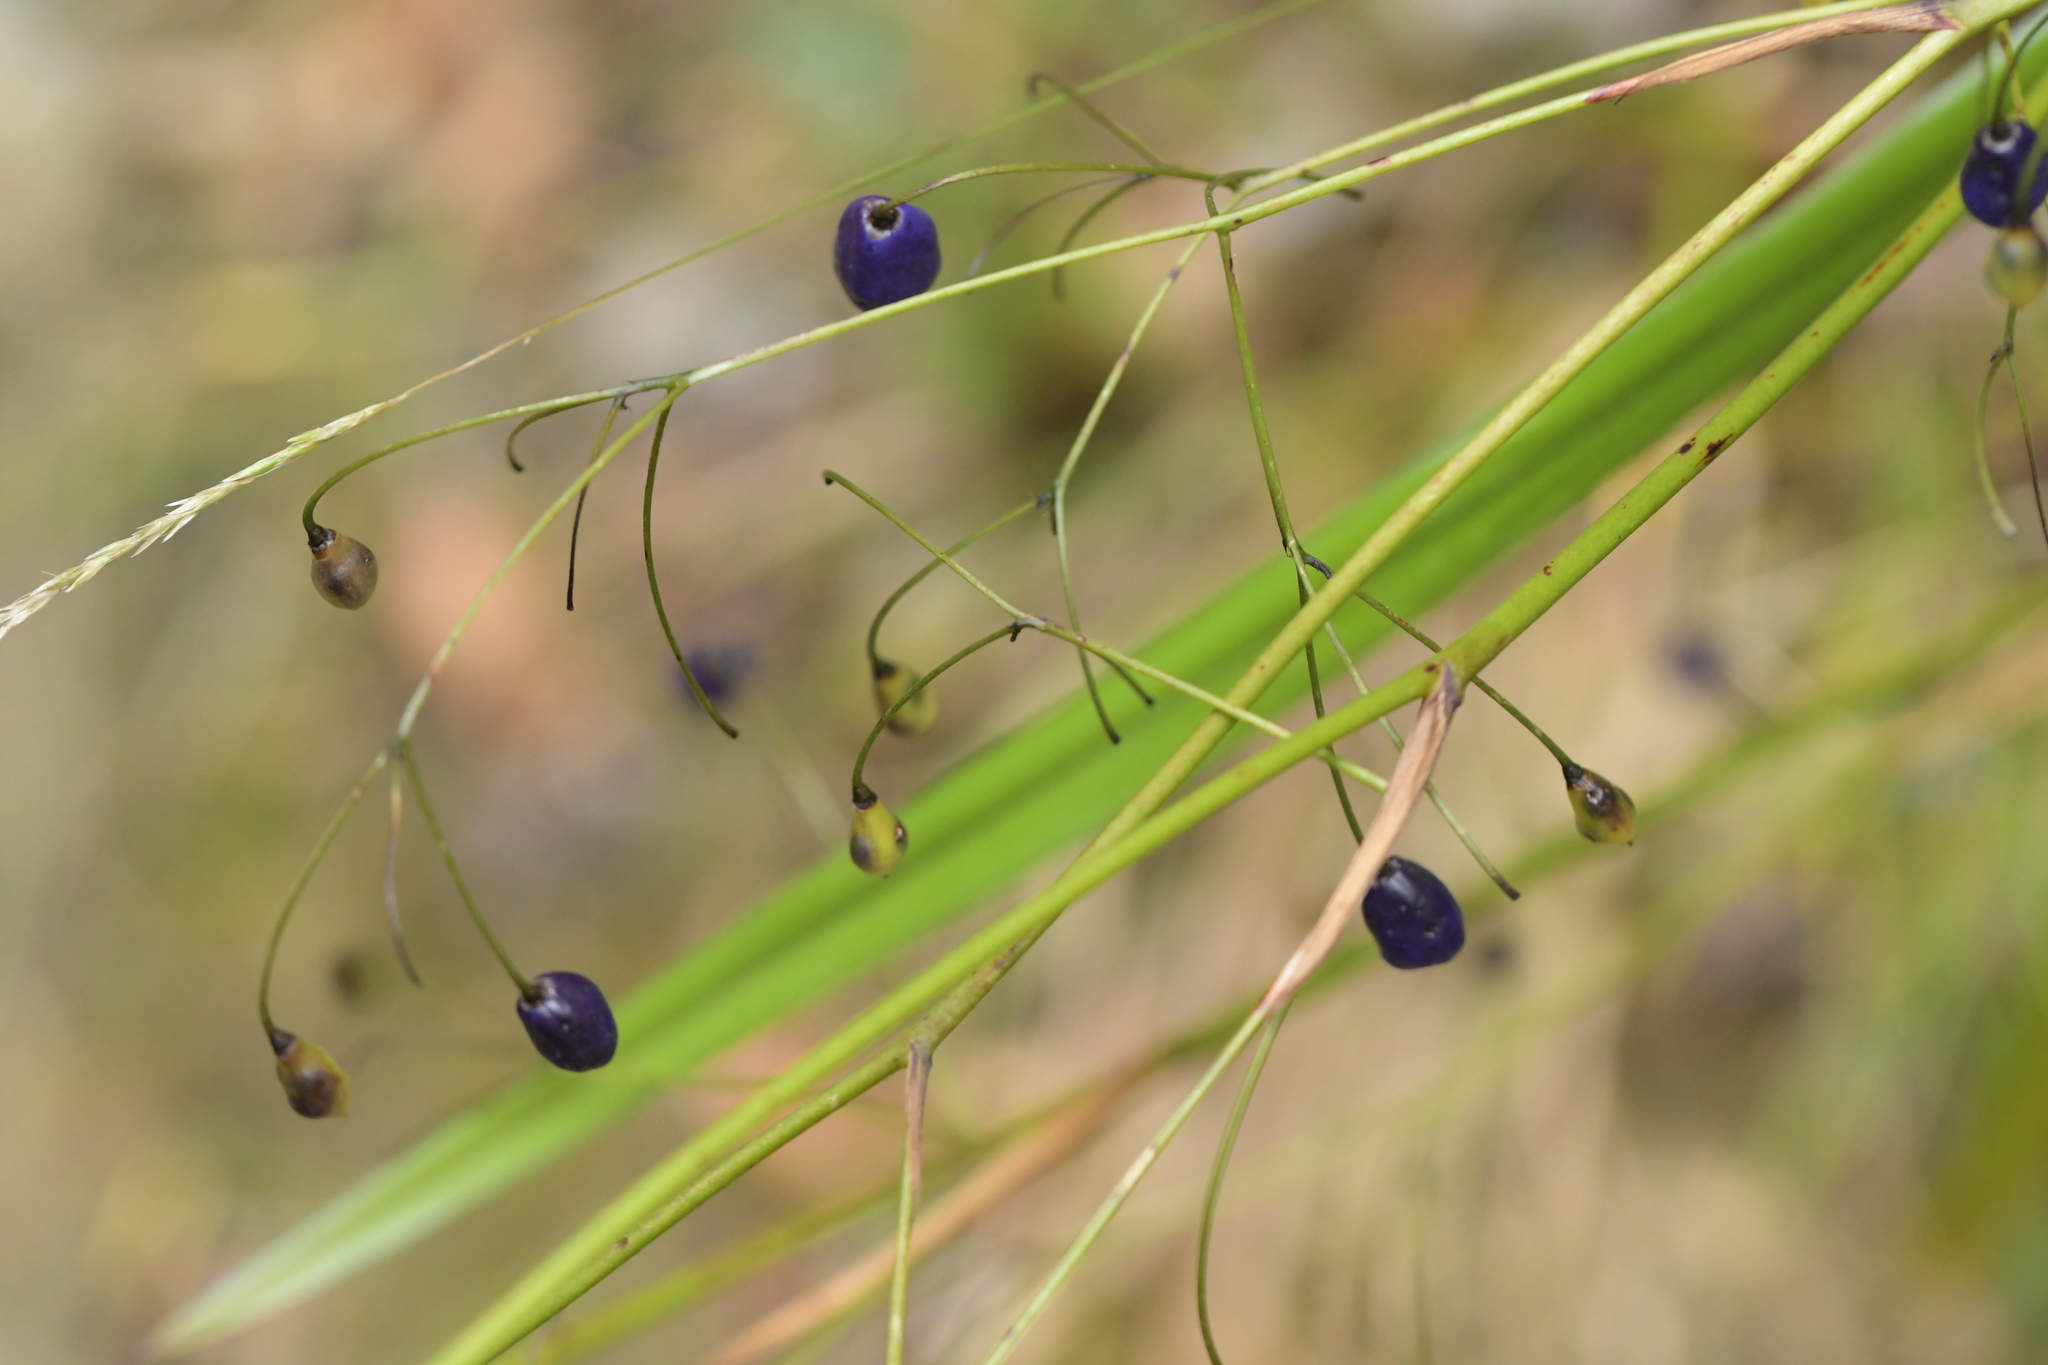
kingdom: Plantae
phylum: Tracheophyta
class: Liliopsida
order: Asparagales
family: Asphodelaceae
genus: Dianella
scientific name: Dianella nigra
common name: New zealand-blueberry
